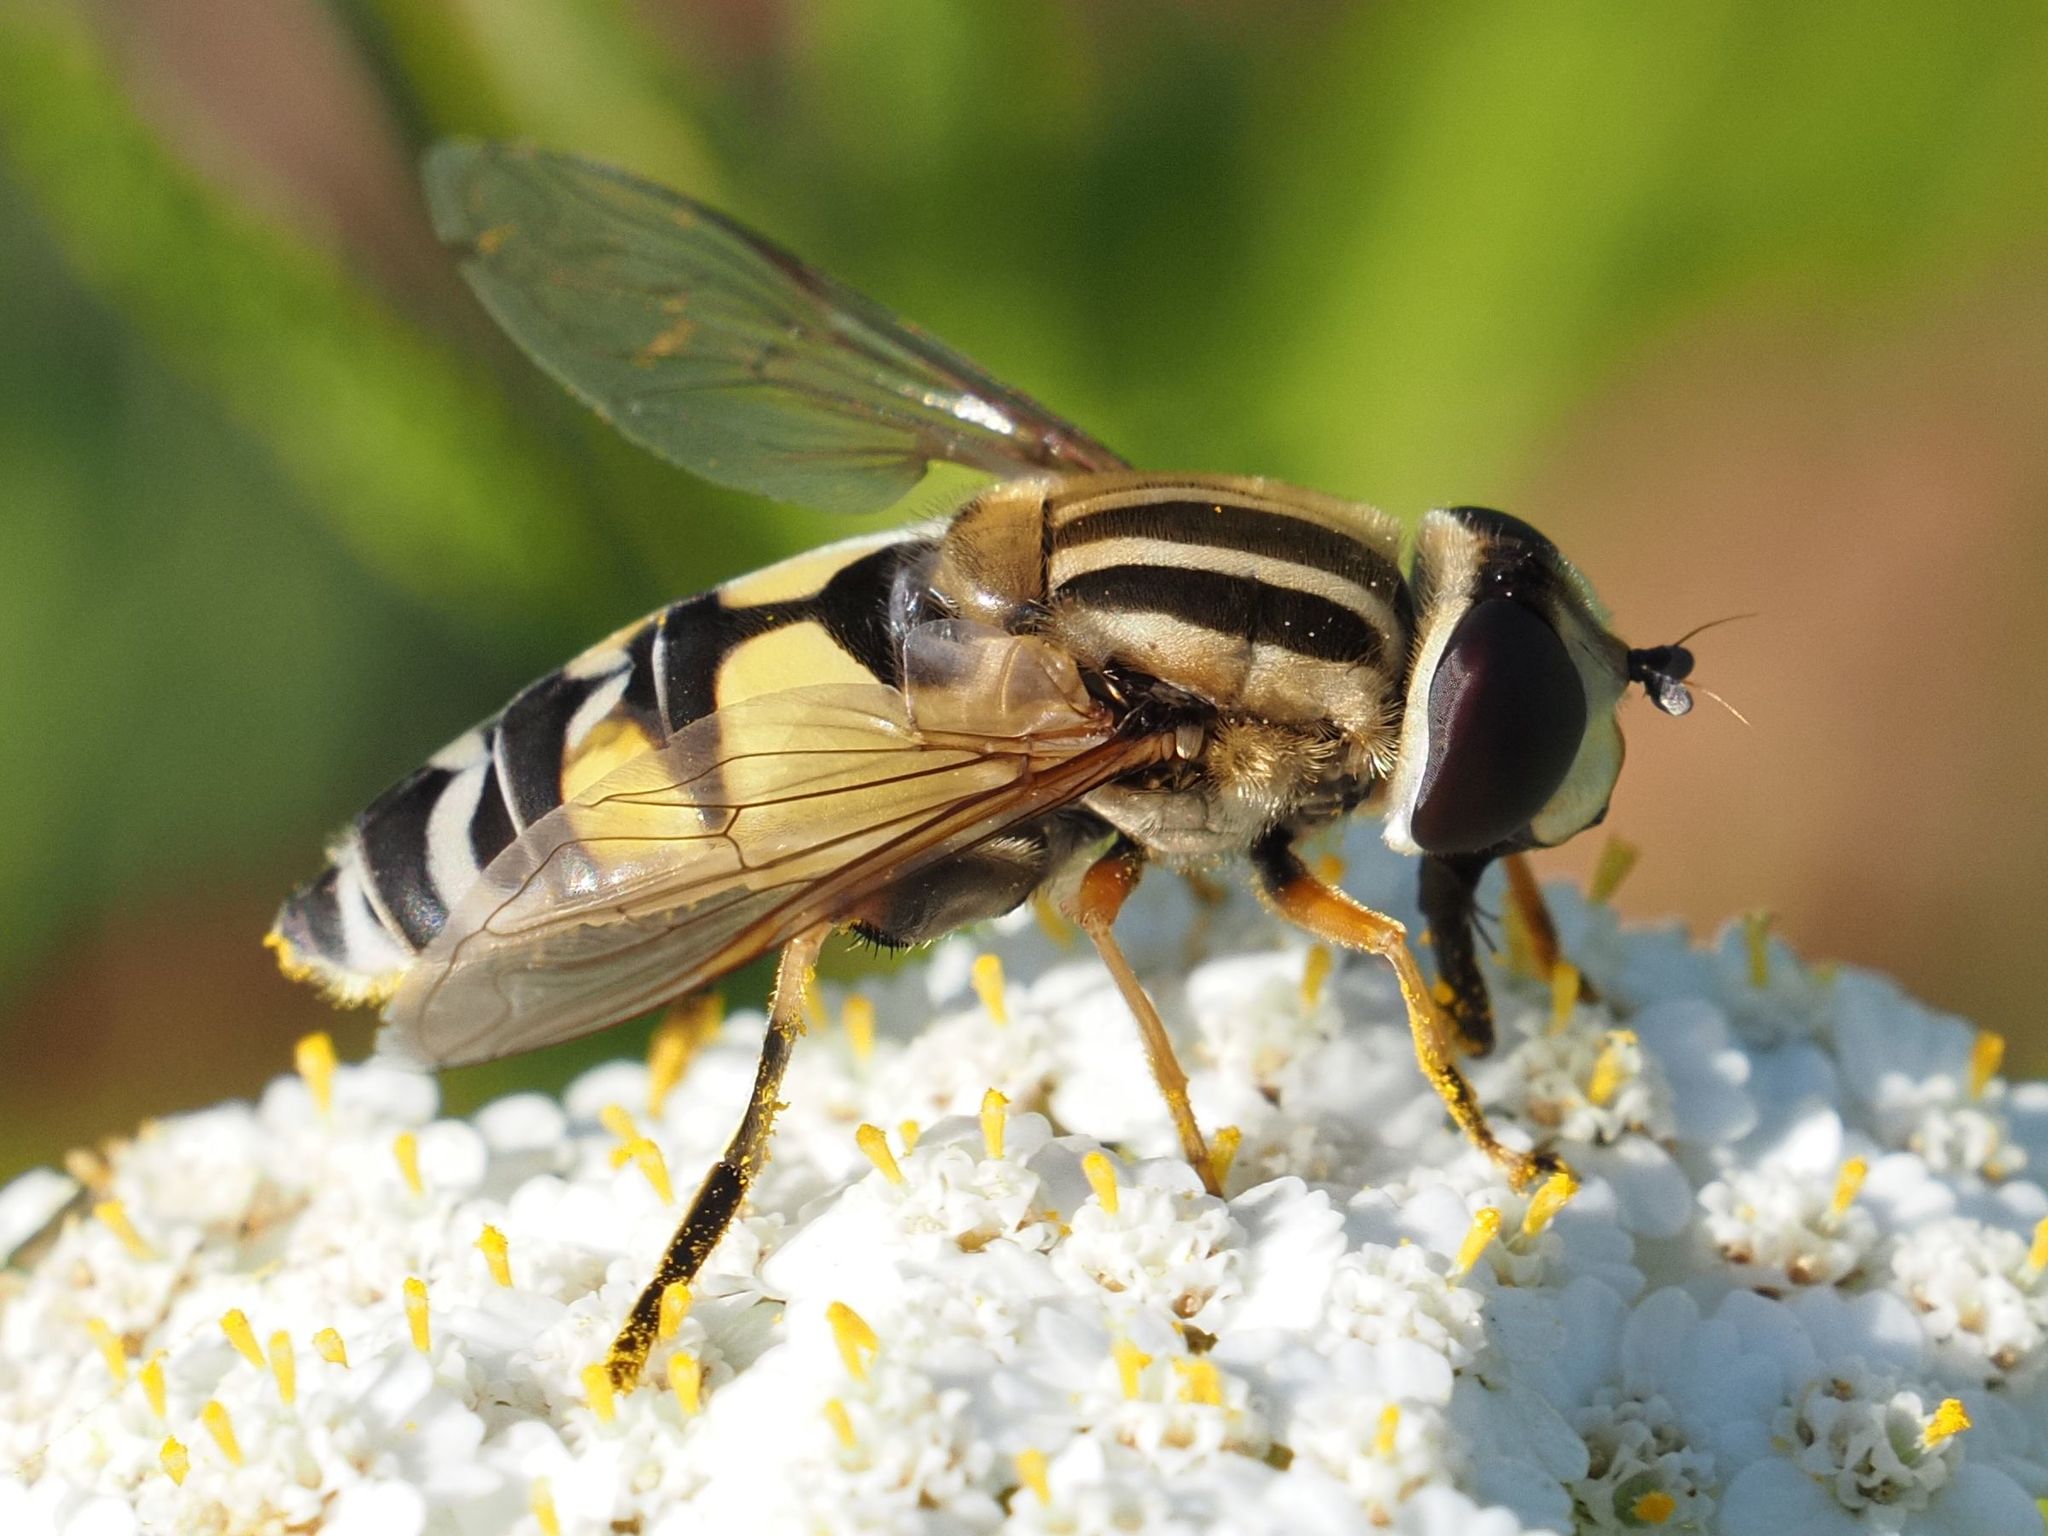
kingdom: Animalia
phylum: Arthropoda
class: Insecta
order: Diptera
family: Syrphidae
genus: Helophilus
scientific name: Helophilus trivittatus
